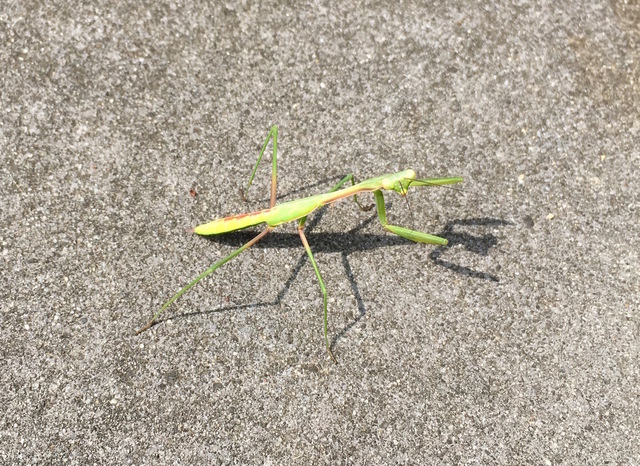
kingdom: Animalia
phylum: Arthropoda
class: Insecta
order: Mantodea
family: Mantidae
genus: Pseudomantis
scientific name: Pseudomantis albofimbriata
